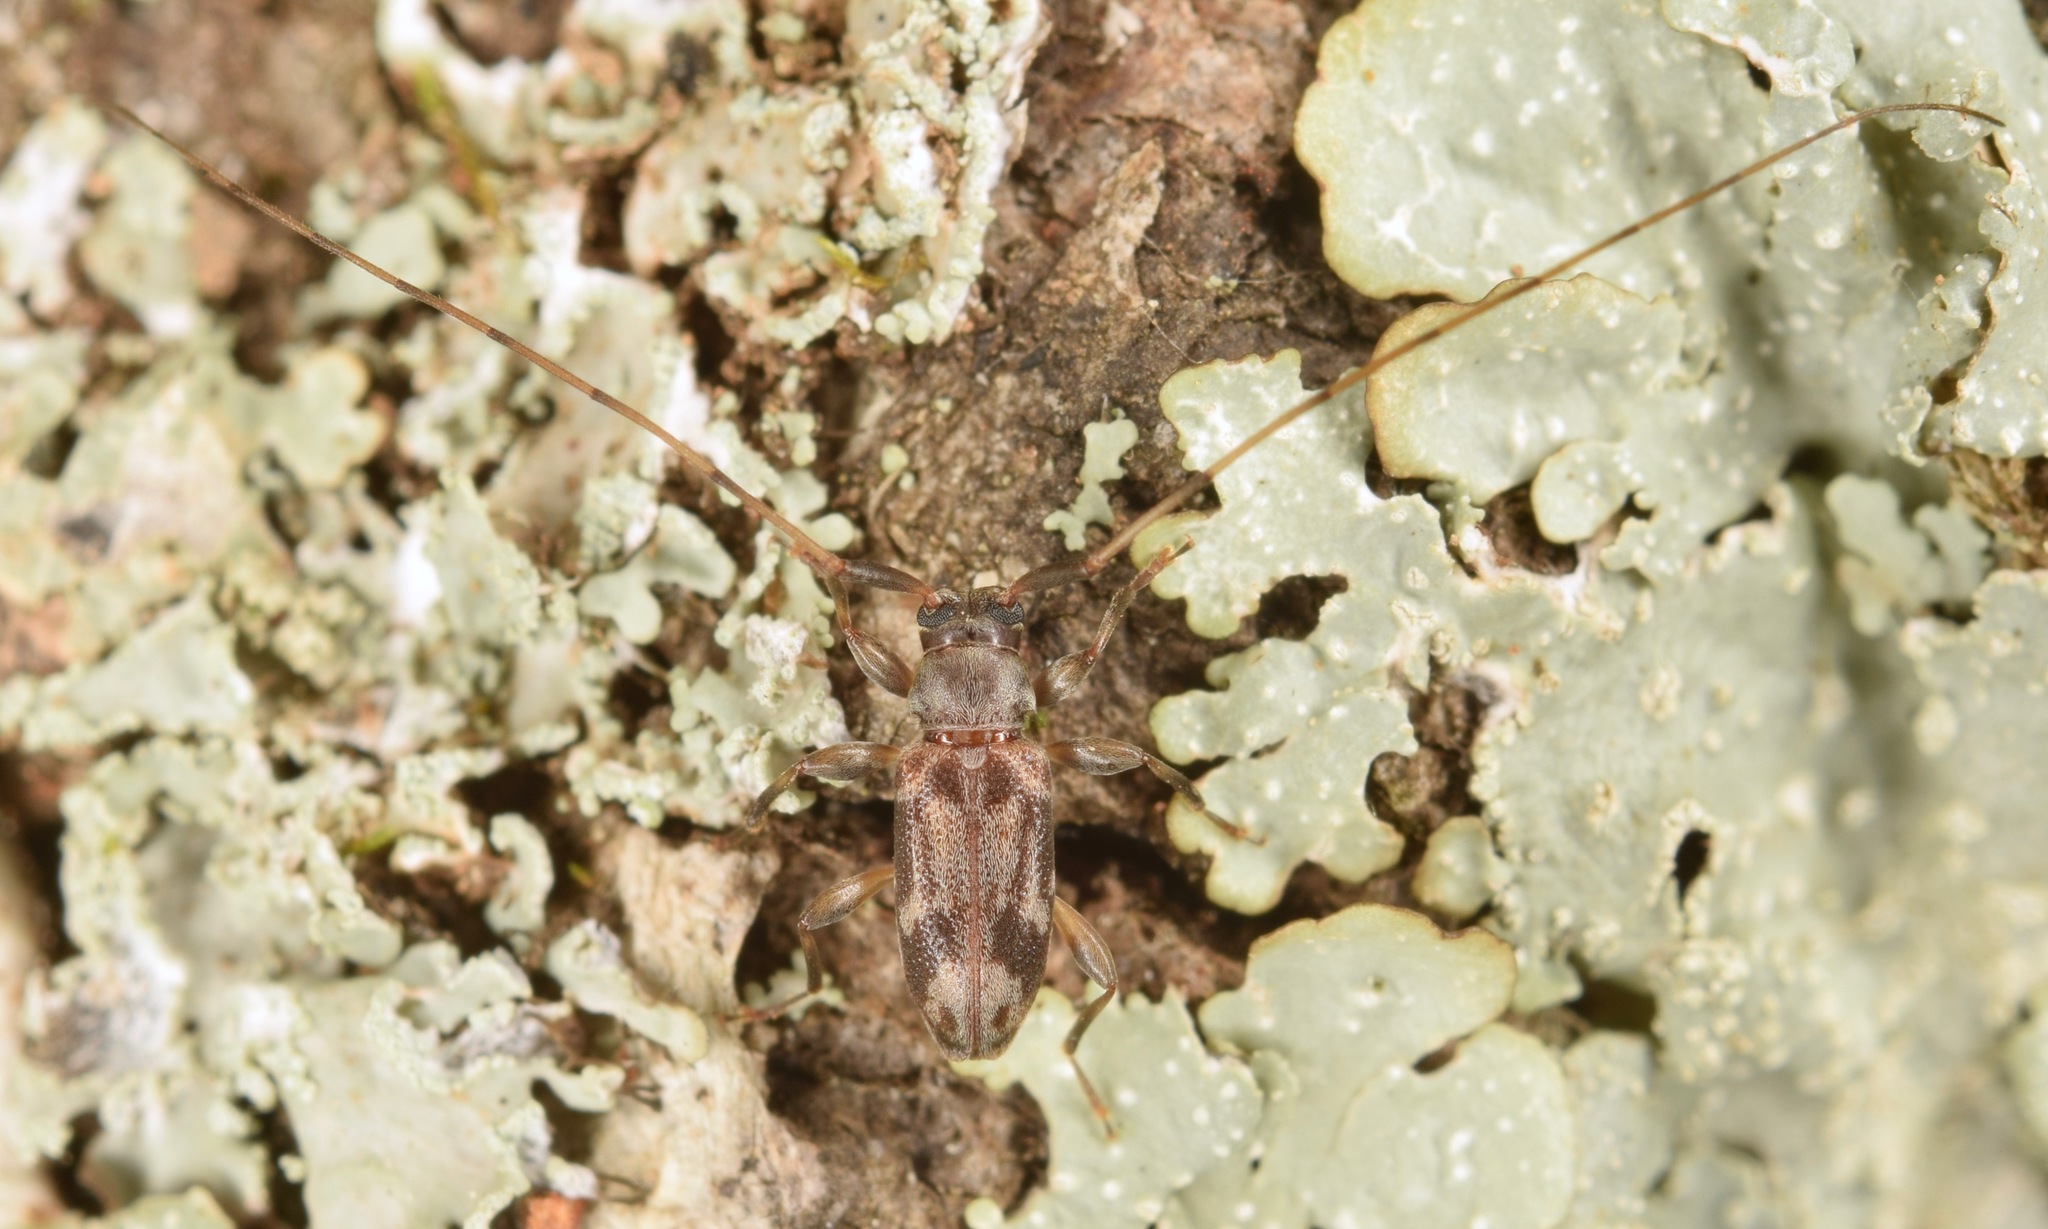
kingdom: Animalia
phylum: Arthropoda
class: Insecta
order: Coleoptera
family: Cerambycidae
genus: Urgleptes
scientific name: Urgleptes signatus
